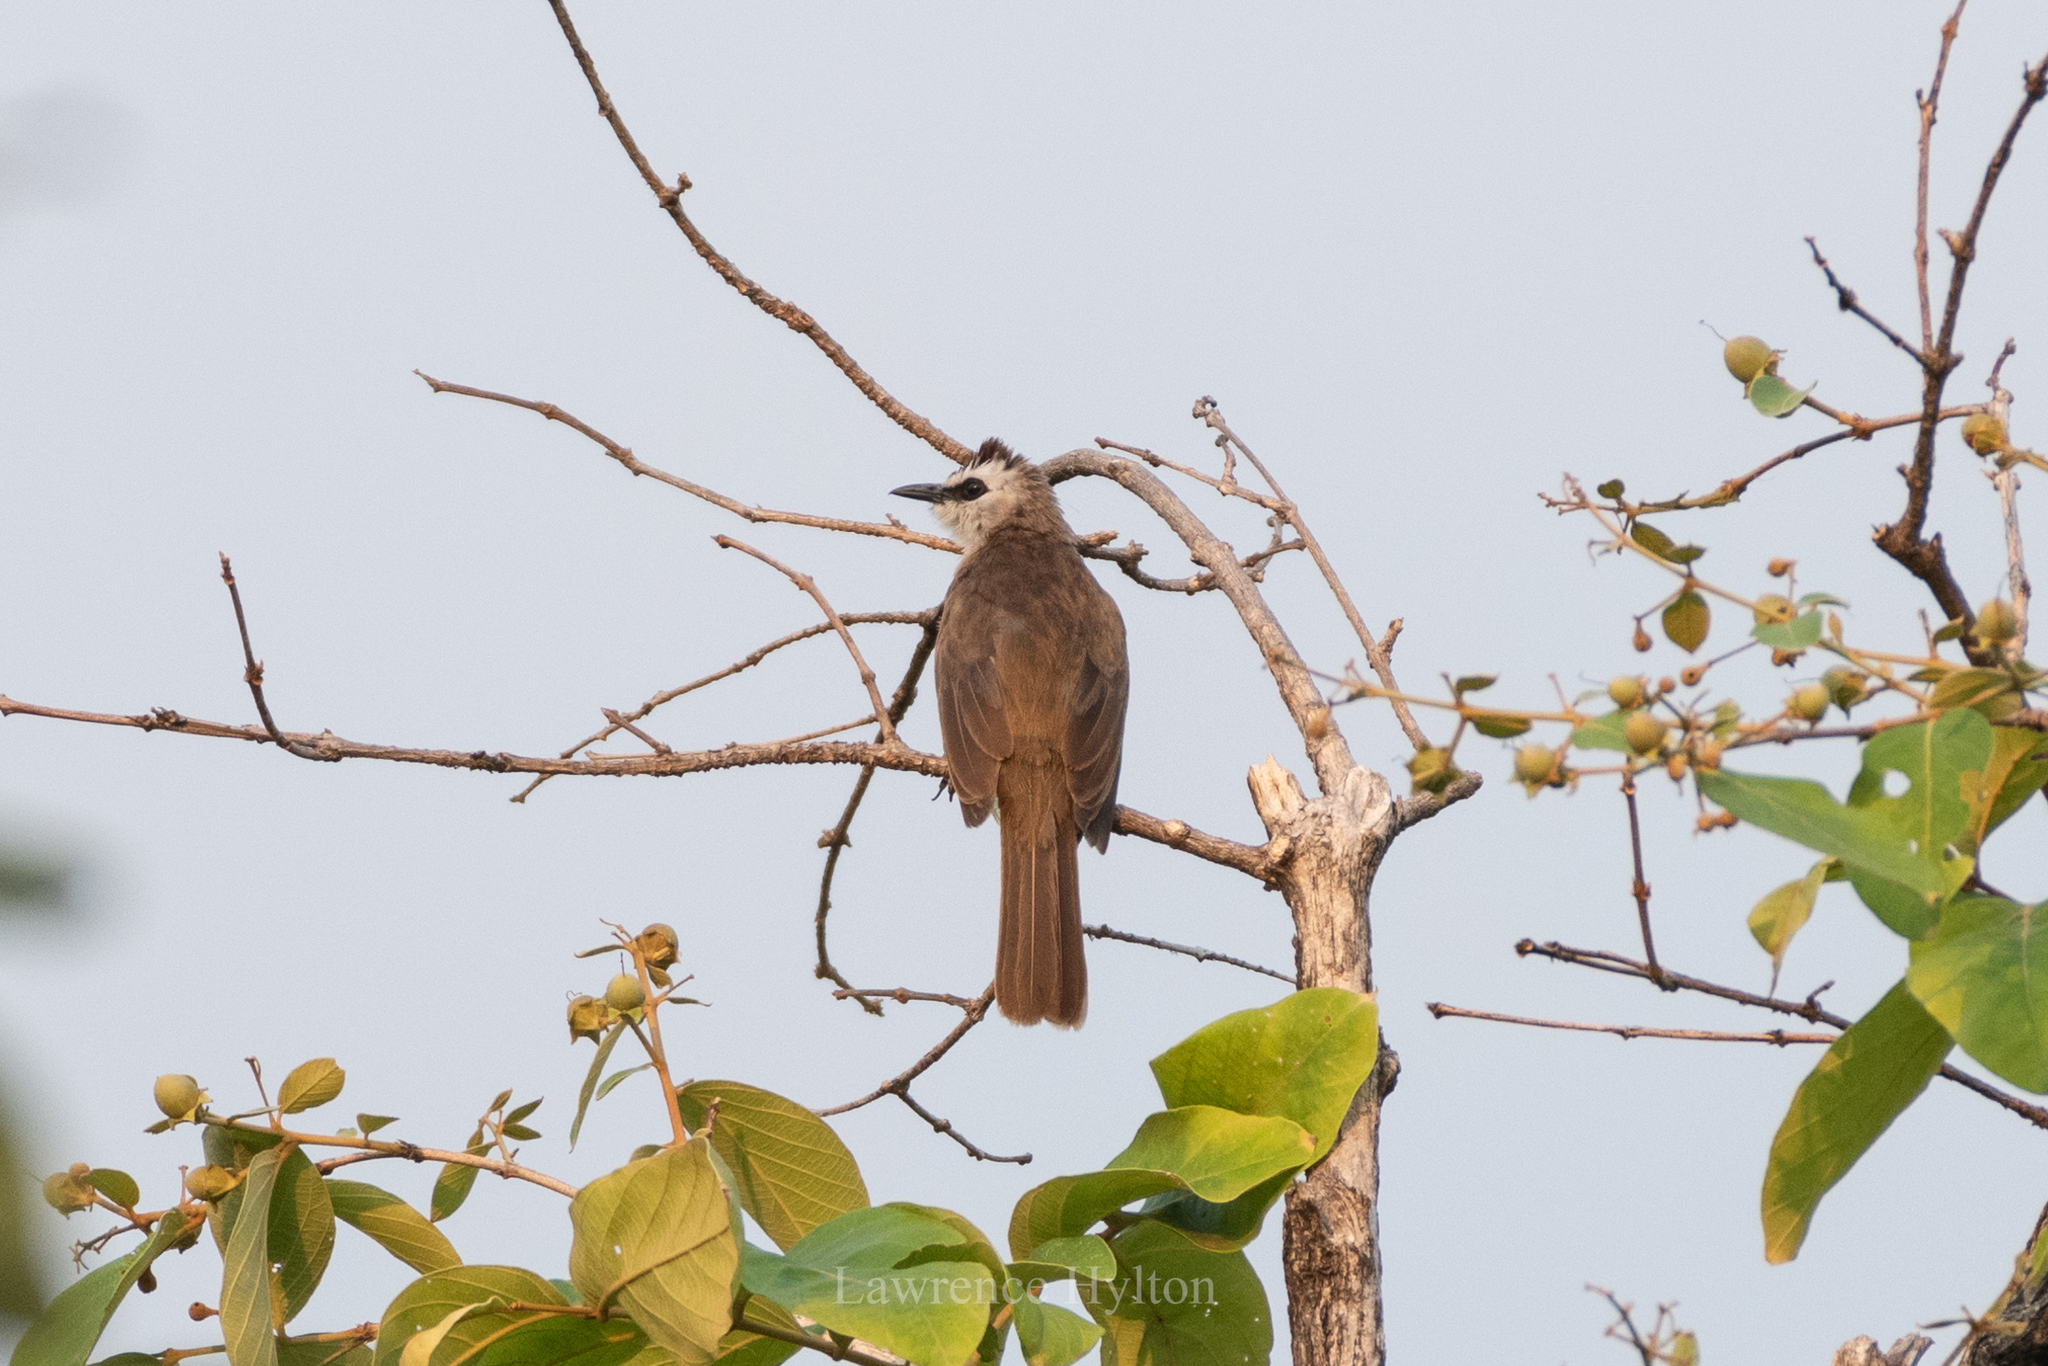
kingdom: Animalia
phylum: Chordata
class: Aves
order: Passeriformes
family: Pycnonotidae
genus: Pycnonotus
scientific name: Pycnonotus goiavier
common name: Yellow-vented bulbul
